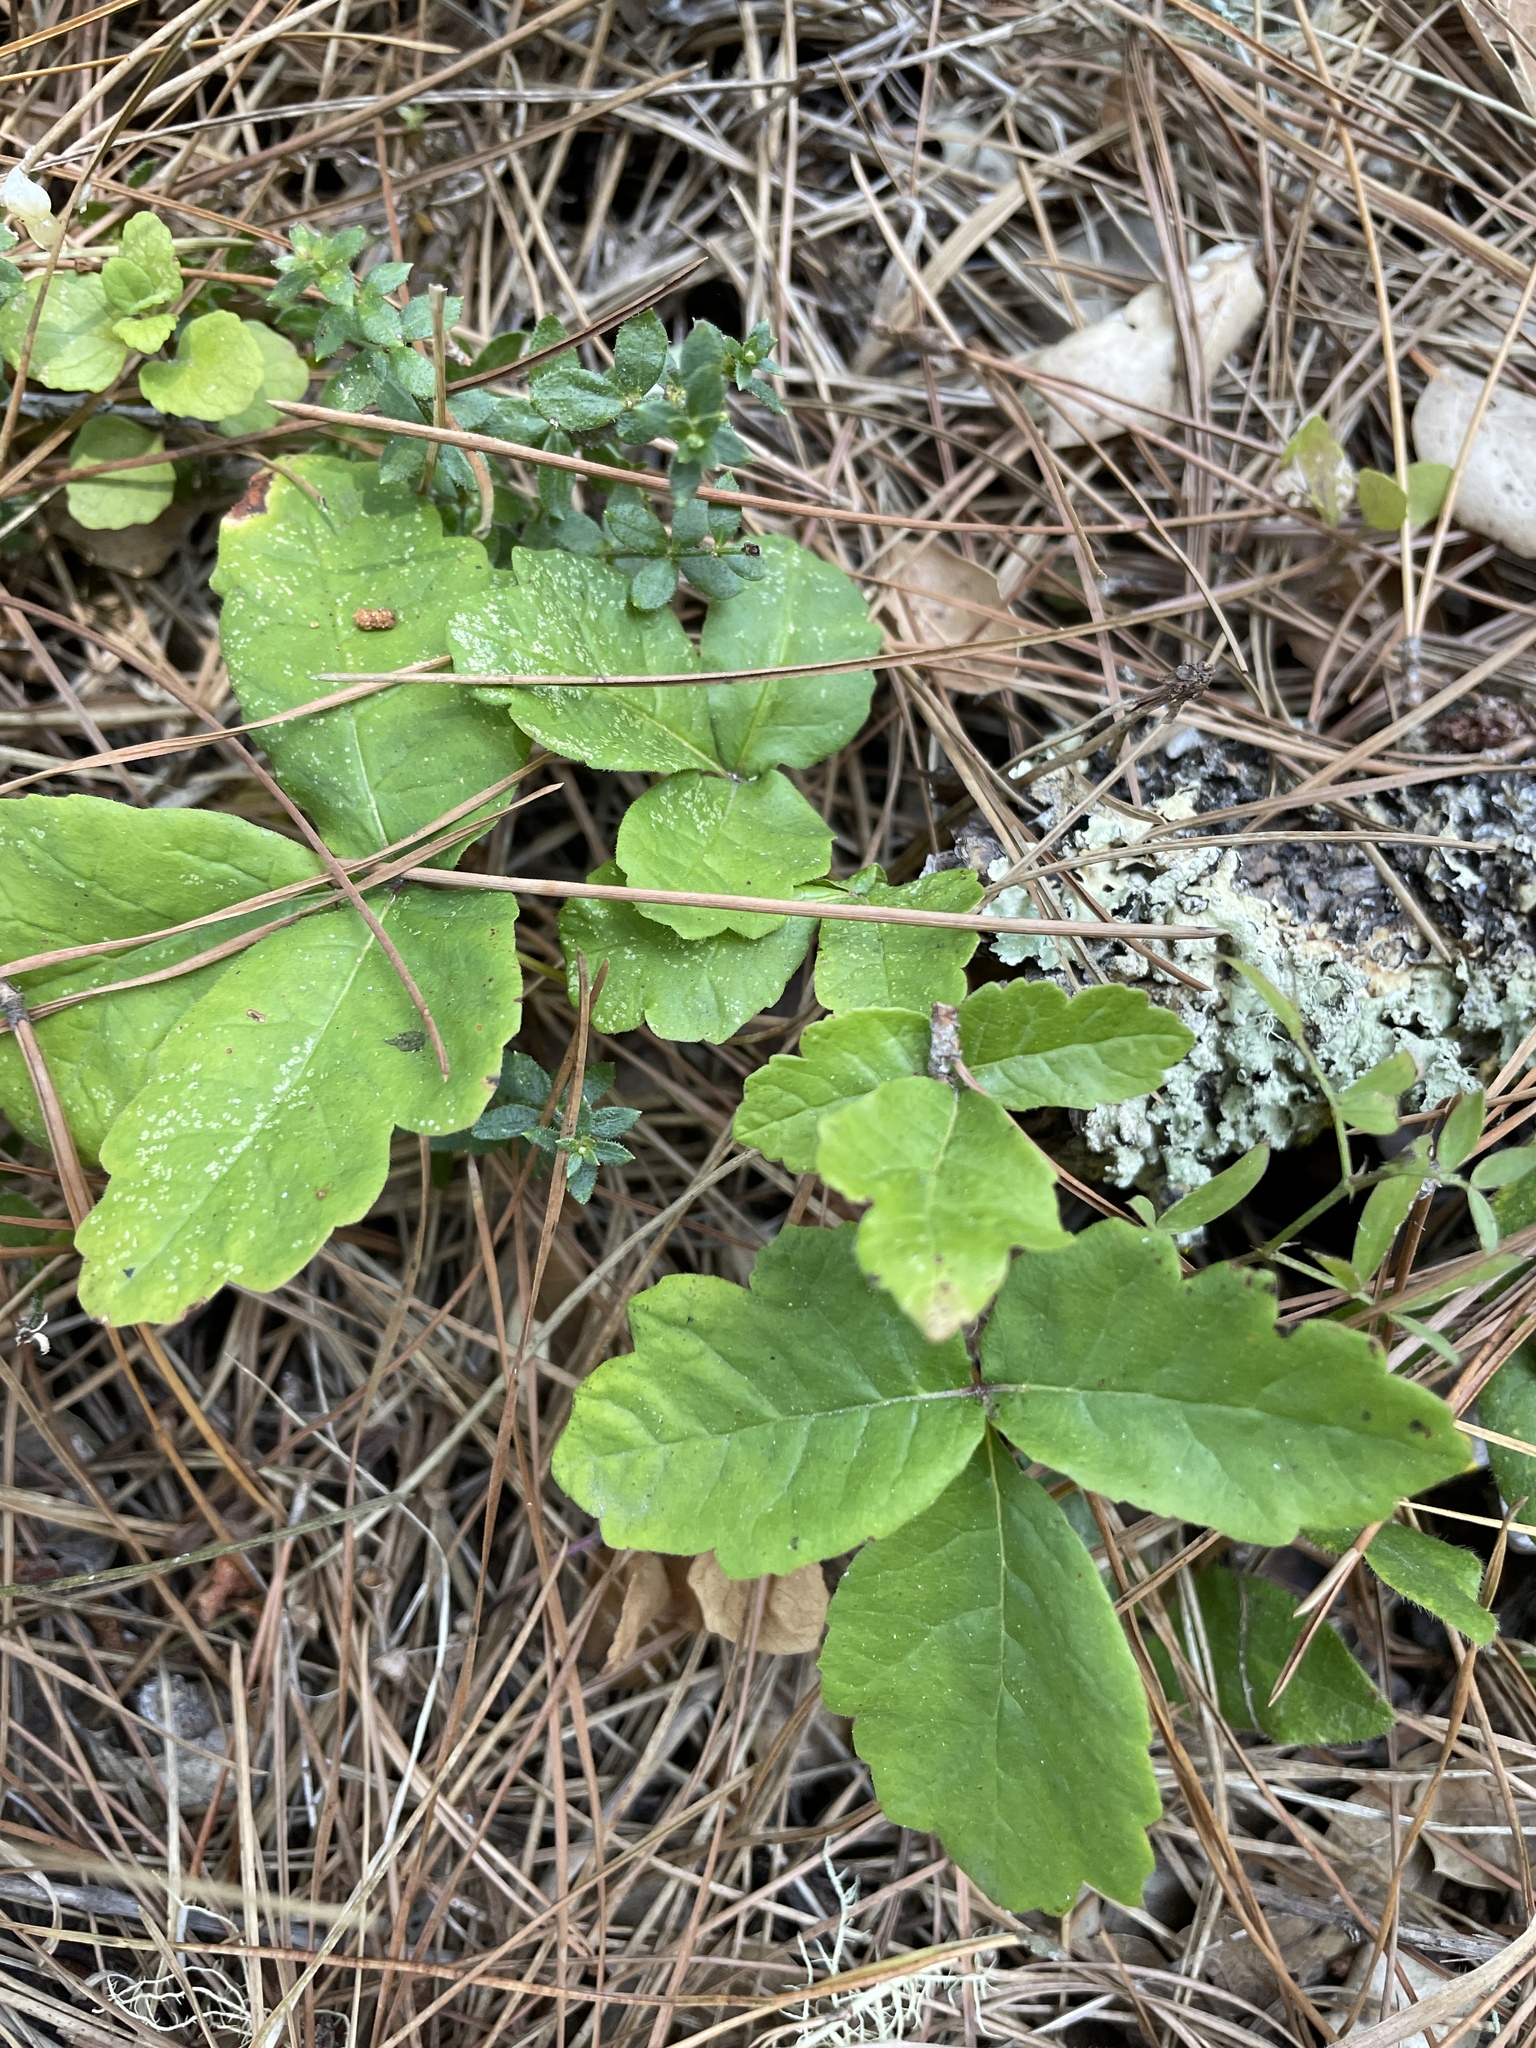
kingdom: Plantae
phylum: Tracheophyta
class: Magnoliopsida
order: Sapindales
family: Anacardiaceae
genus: Toxicodendron
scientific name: Toxicodendron diversilobum
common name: Pacific poison-oak
